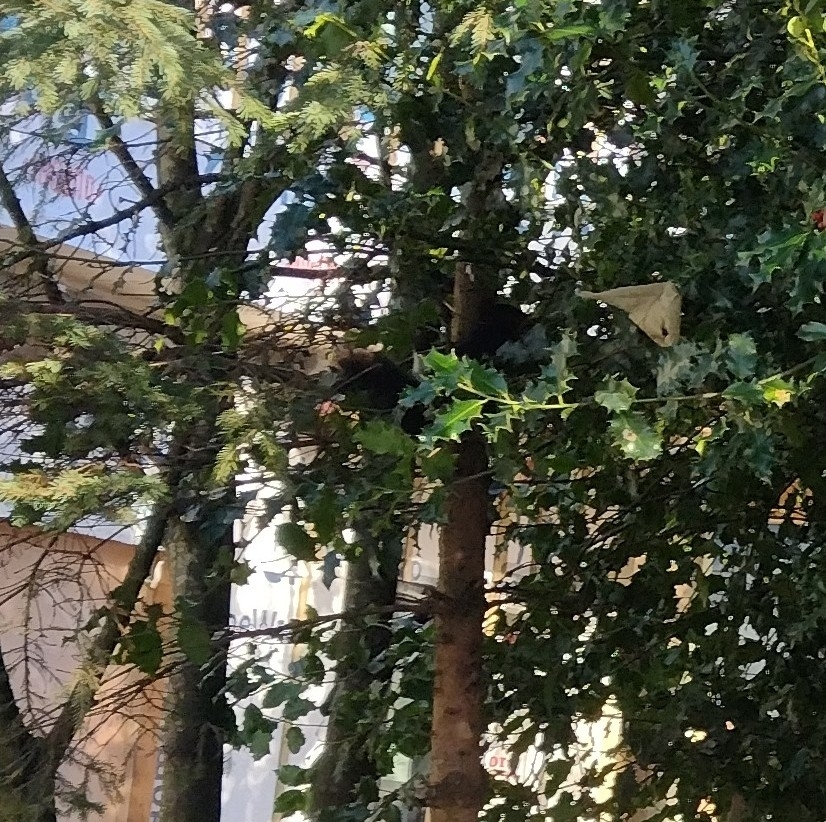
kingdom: Animalia
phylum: Chordata
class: Mammalia
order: Rodentia
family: Sciuridae
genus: Sciurus
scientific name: Sciurus carolinensis
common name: Eastern gray squirrel
